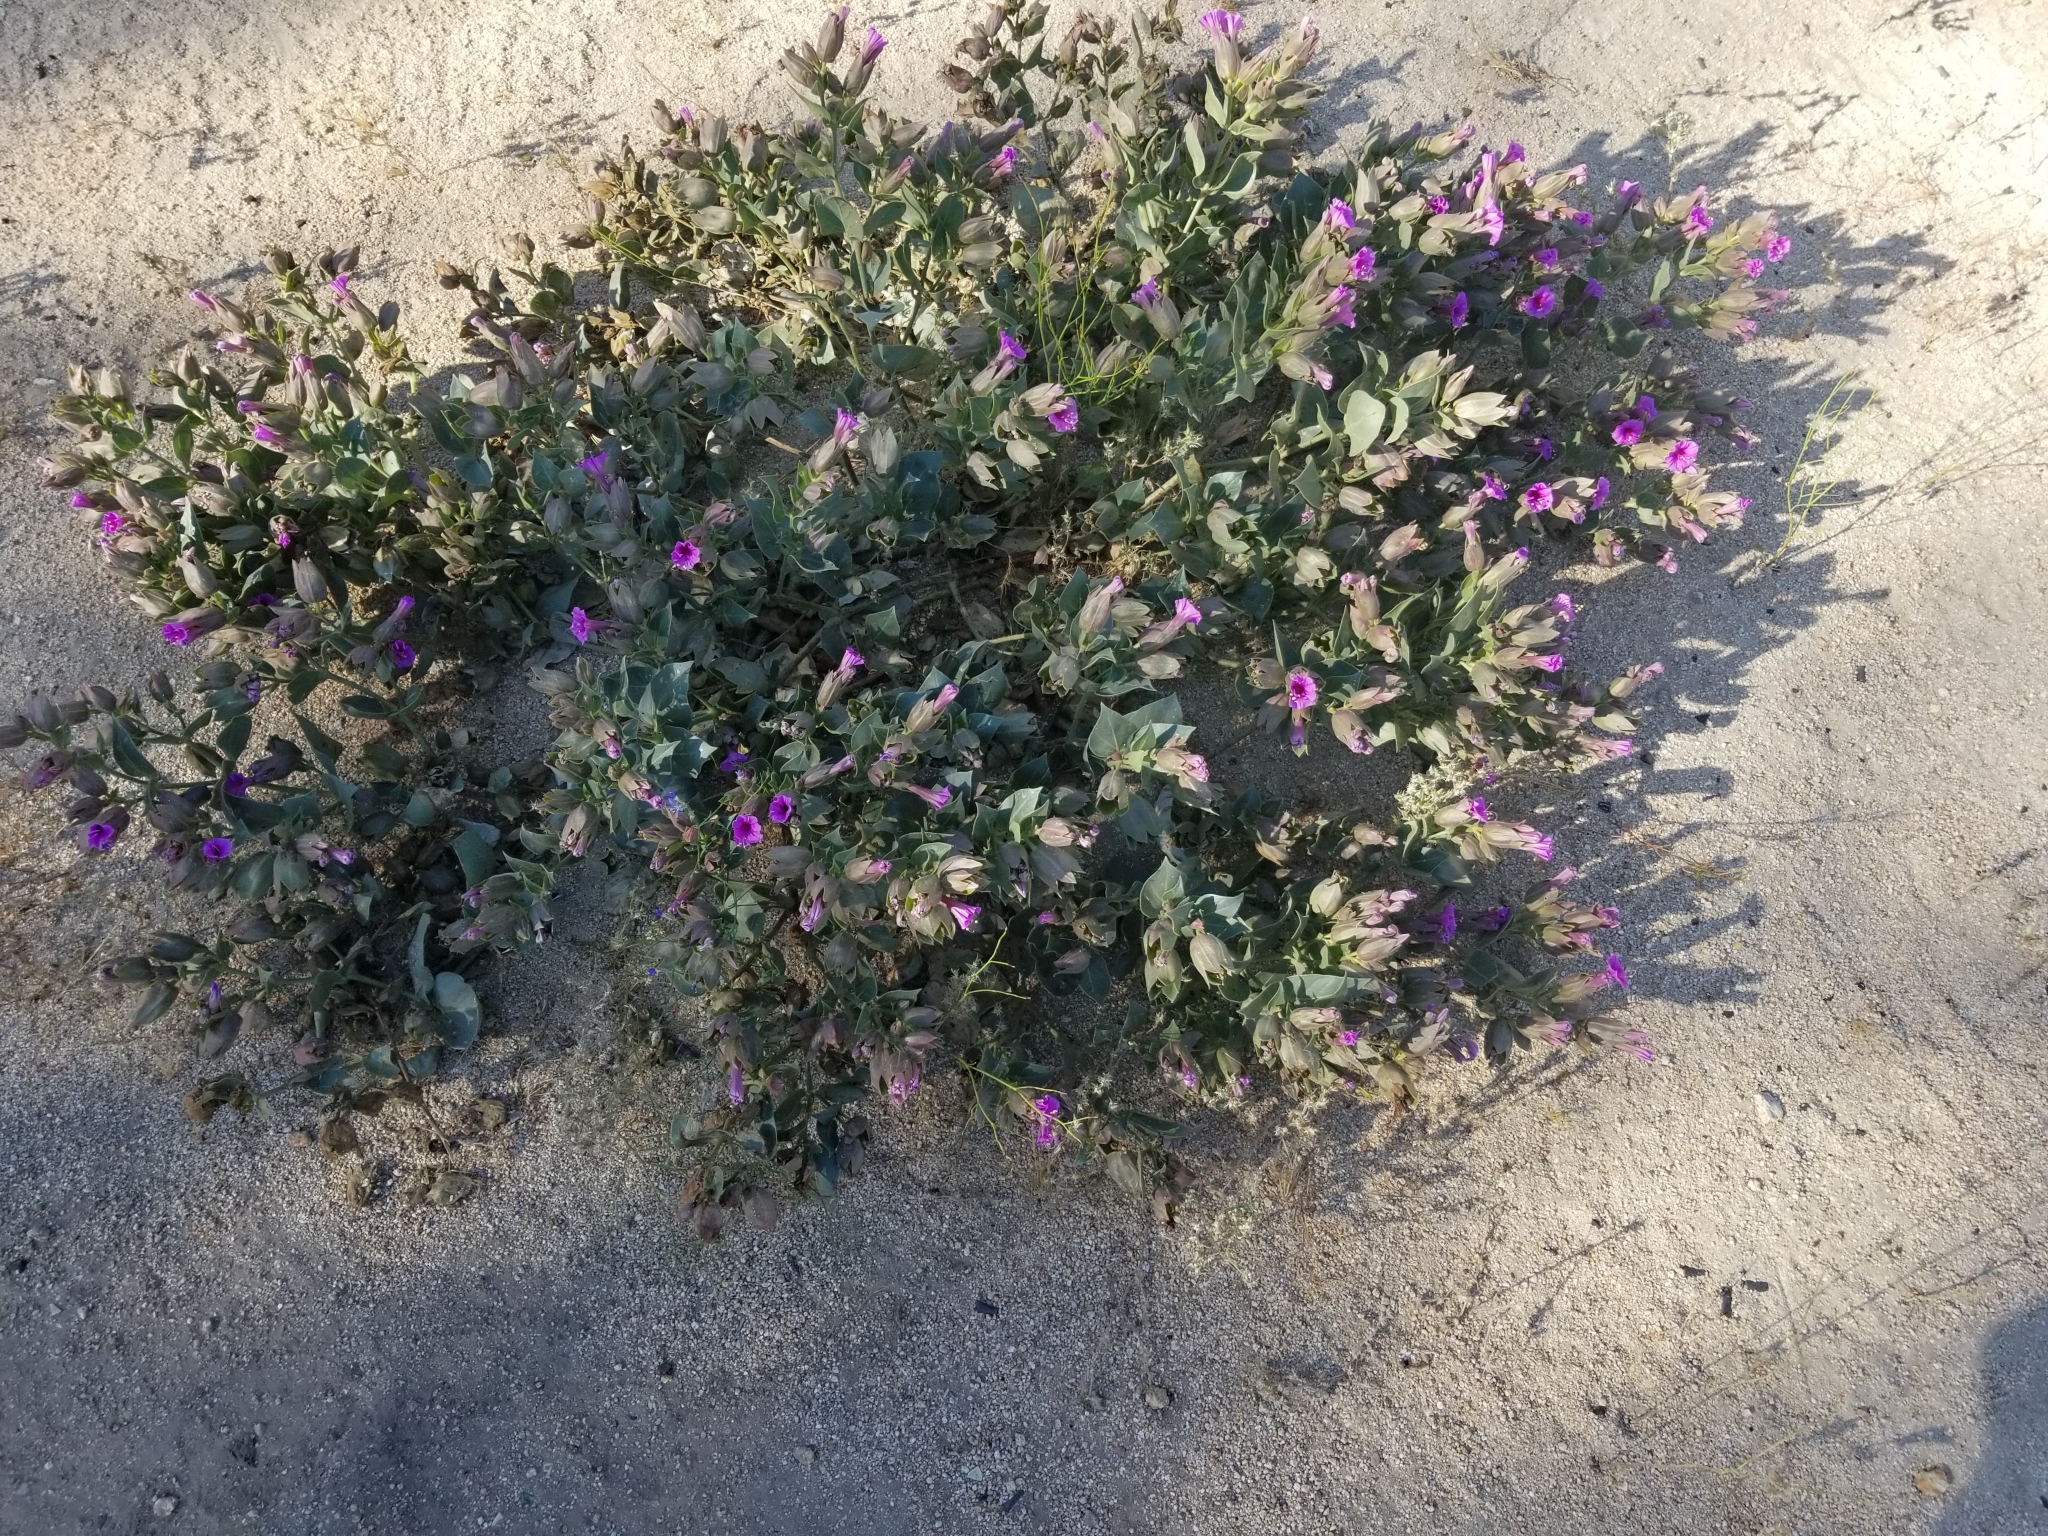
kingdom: Plantae
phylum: Tracheophyta
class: Magnoliopsida
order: Caryophyllales
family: Nyctaginaceae
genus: Mirabilis
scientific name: Mirabilis multiflora
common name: Froebel's four-o'clock
